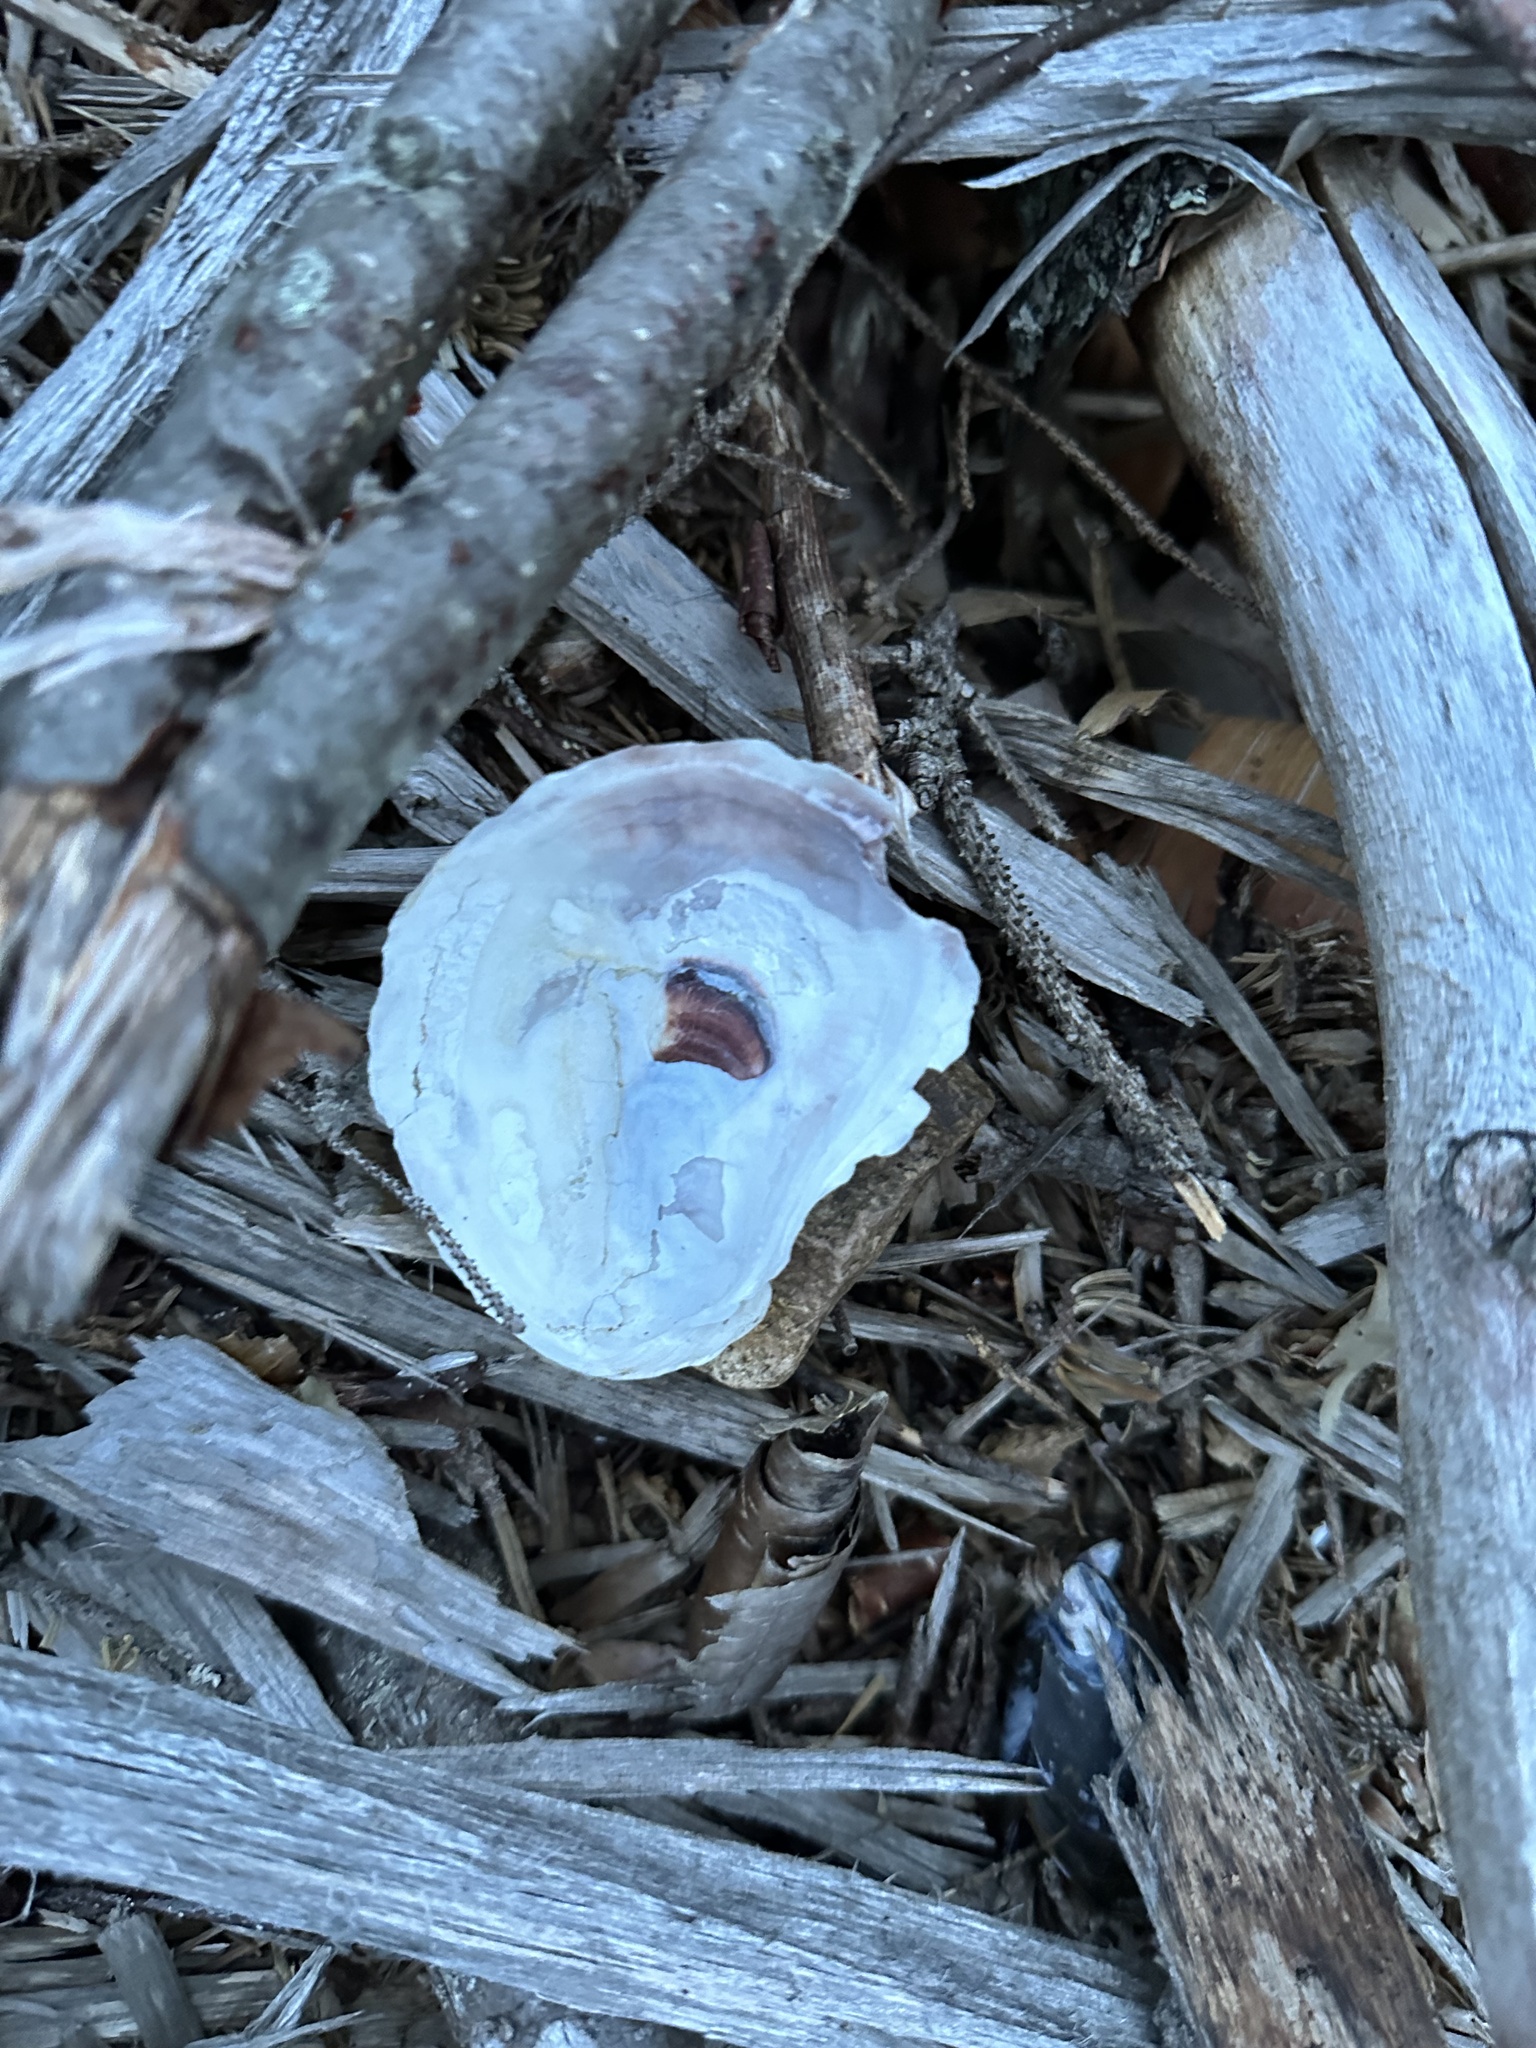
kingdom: Animalia
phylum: Mollusca
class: Bivalvia
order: Ostreida
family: Ostreidae
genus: Crassostrea
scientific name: Crassostrea virginica
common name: American oyster
